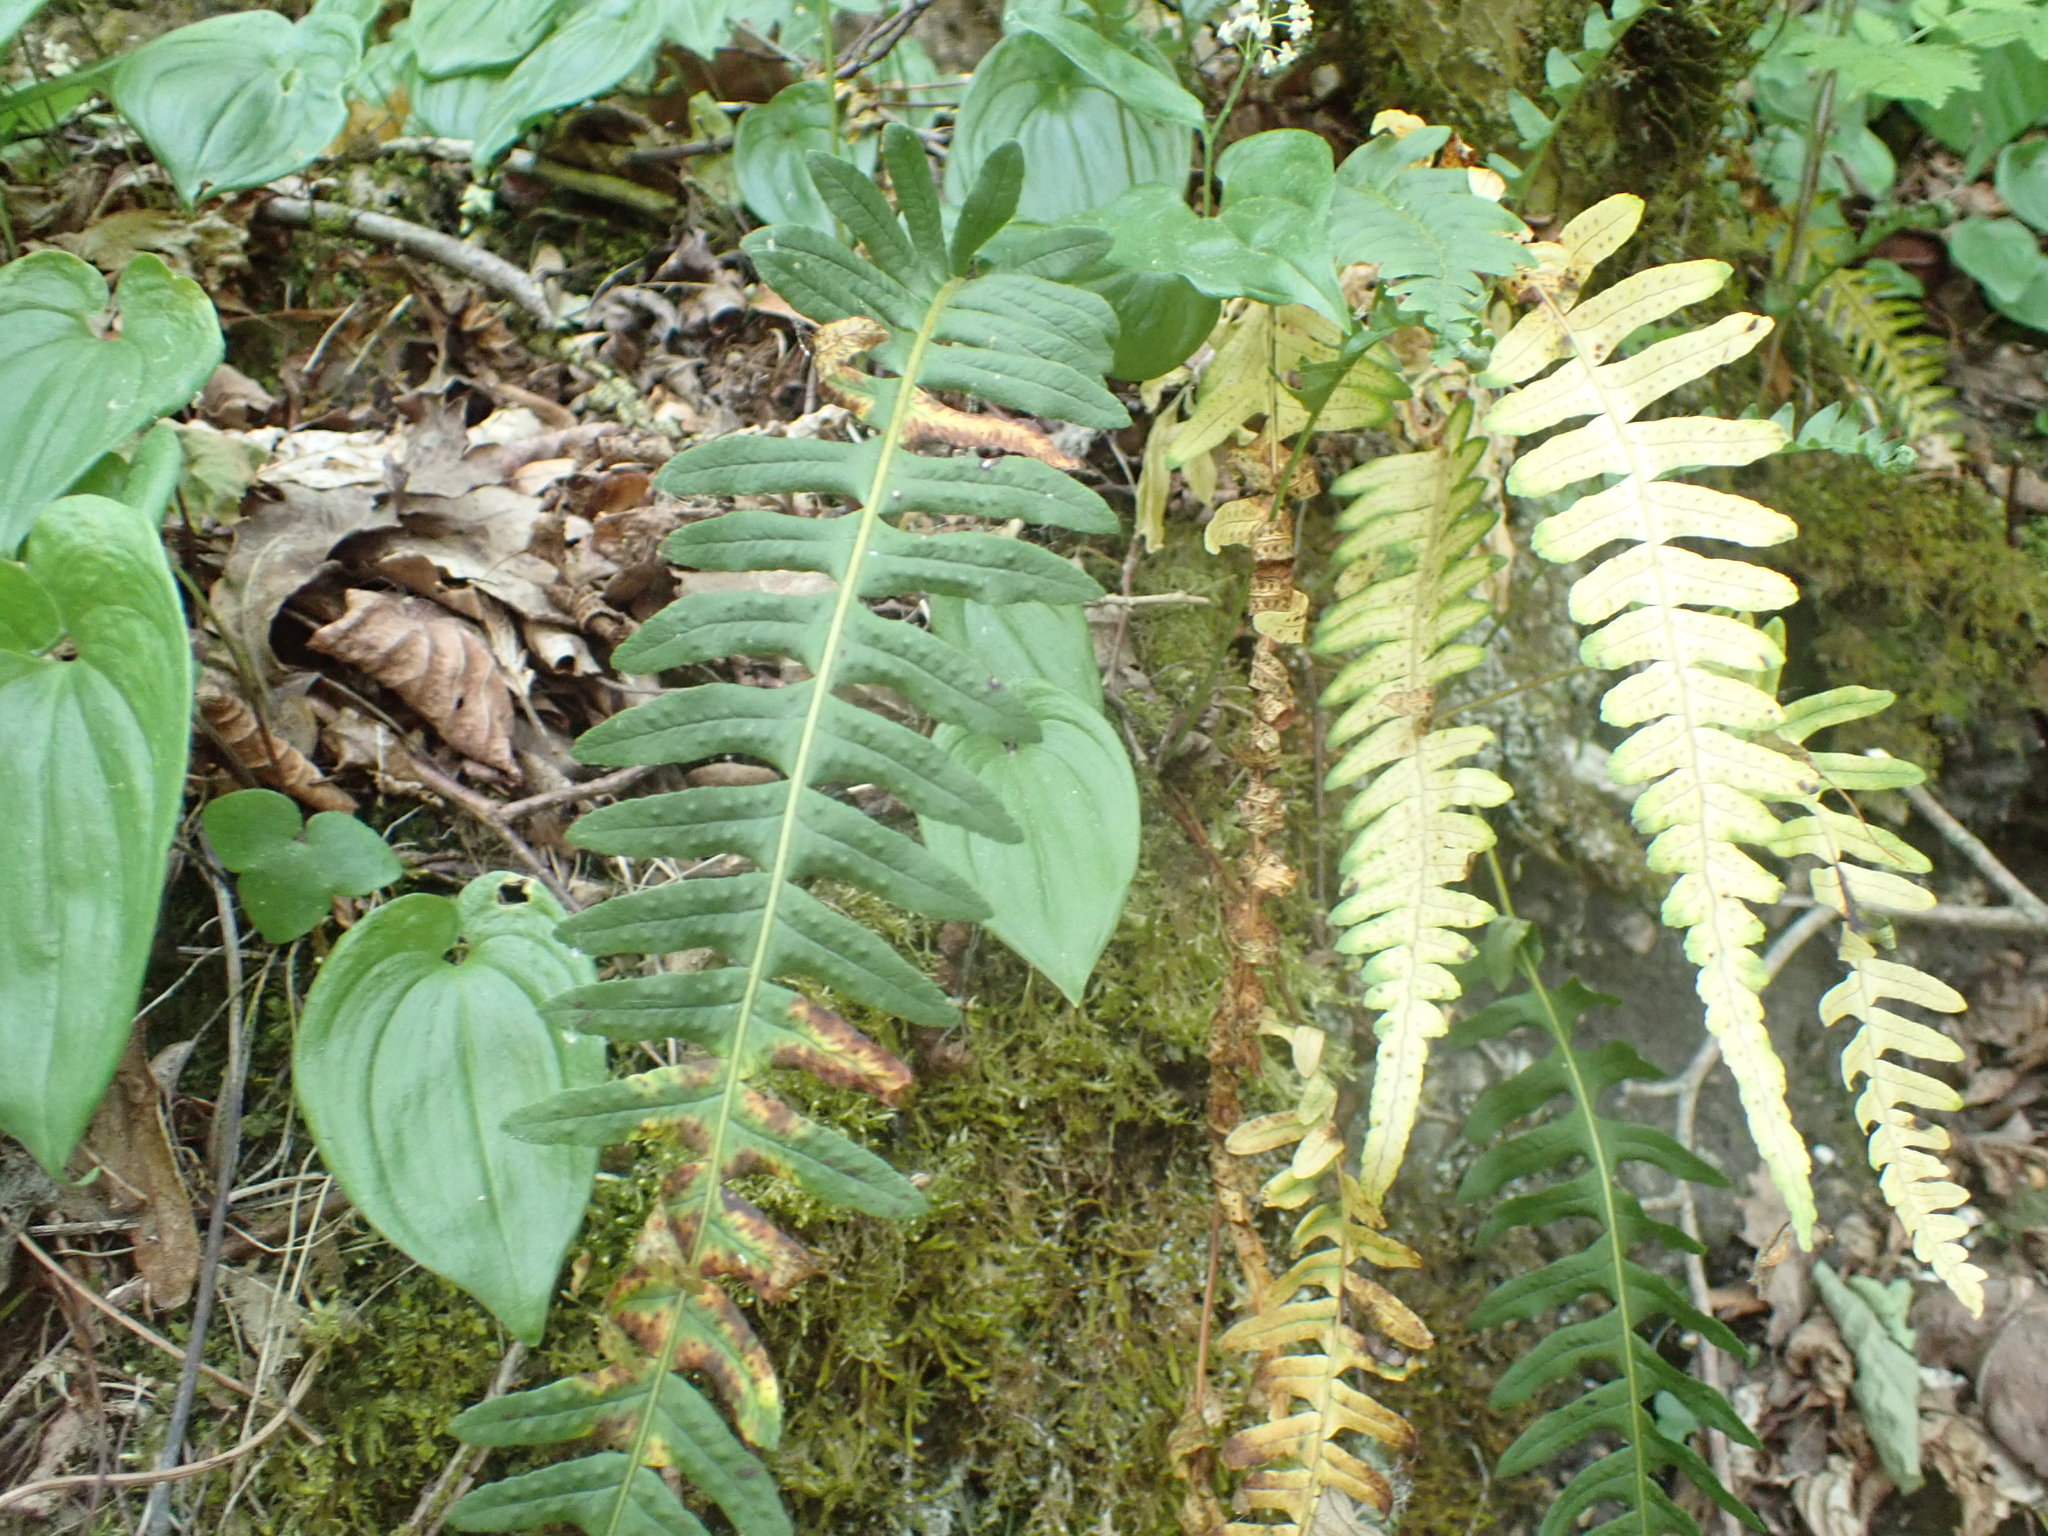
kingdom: Plantae
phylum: Tracheophyta
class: Polypodiopsida
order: Polypodiales
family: Polypodiaceae
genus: Polypodium
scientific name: Polypodium vulgare
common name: Common polypody
